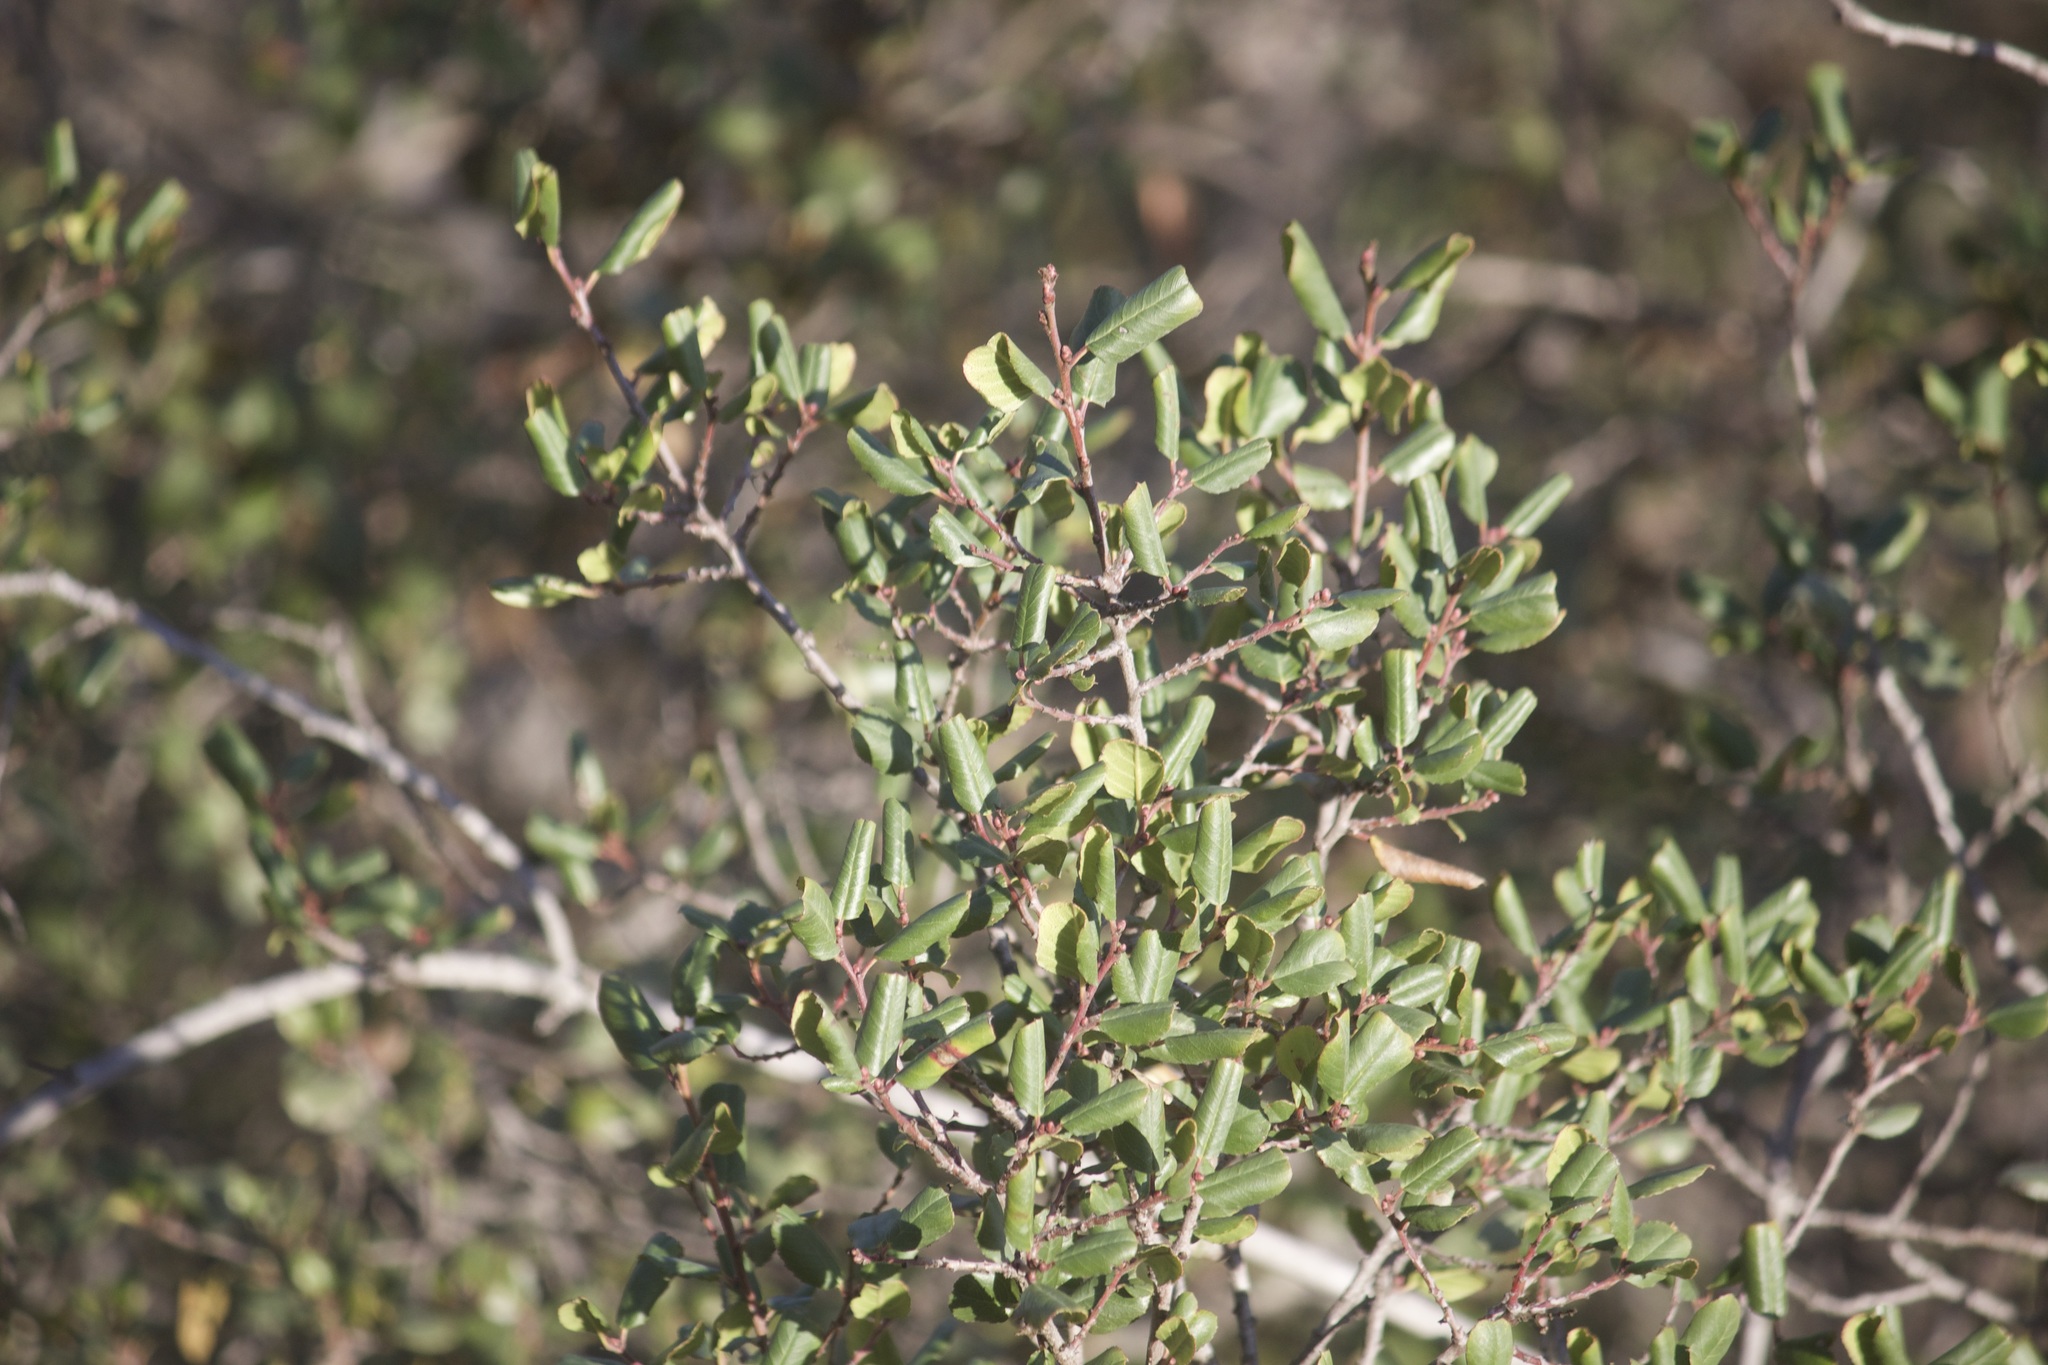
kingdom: Plantae
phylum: Tracheophyta
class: Magnoliopsida
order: Rosales
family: Rhamnaceae
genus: Endotropis
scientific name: Endotropis crocea
